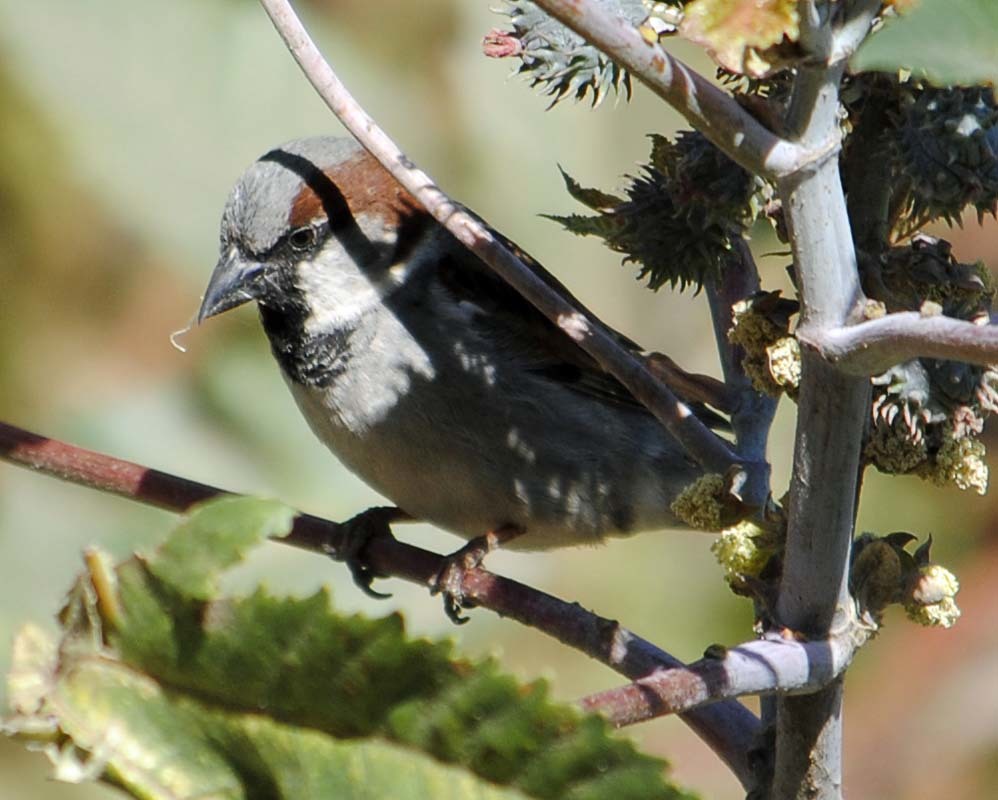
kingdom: Animalia
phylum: Chordata
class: Aves
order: Passeriformes
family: Passeridae
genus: Passer
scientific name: Passer domesticus
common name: House sparrow
